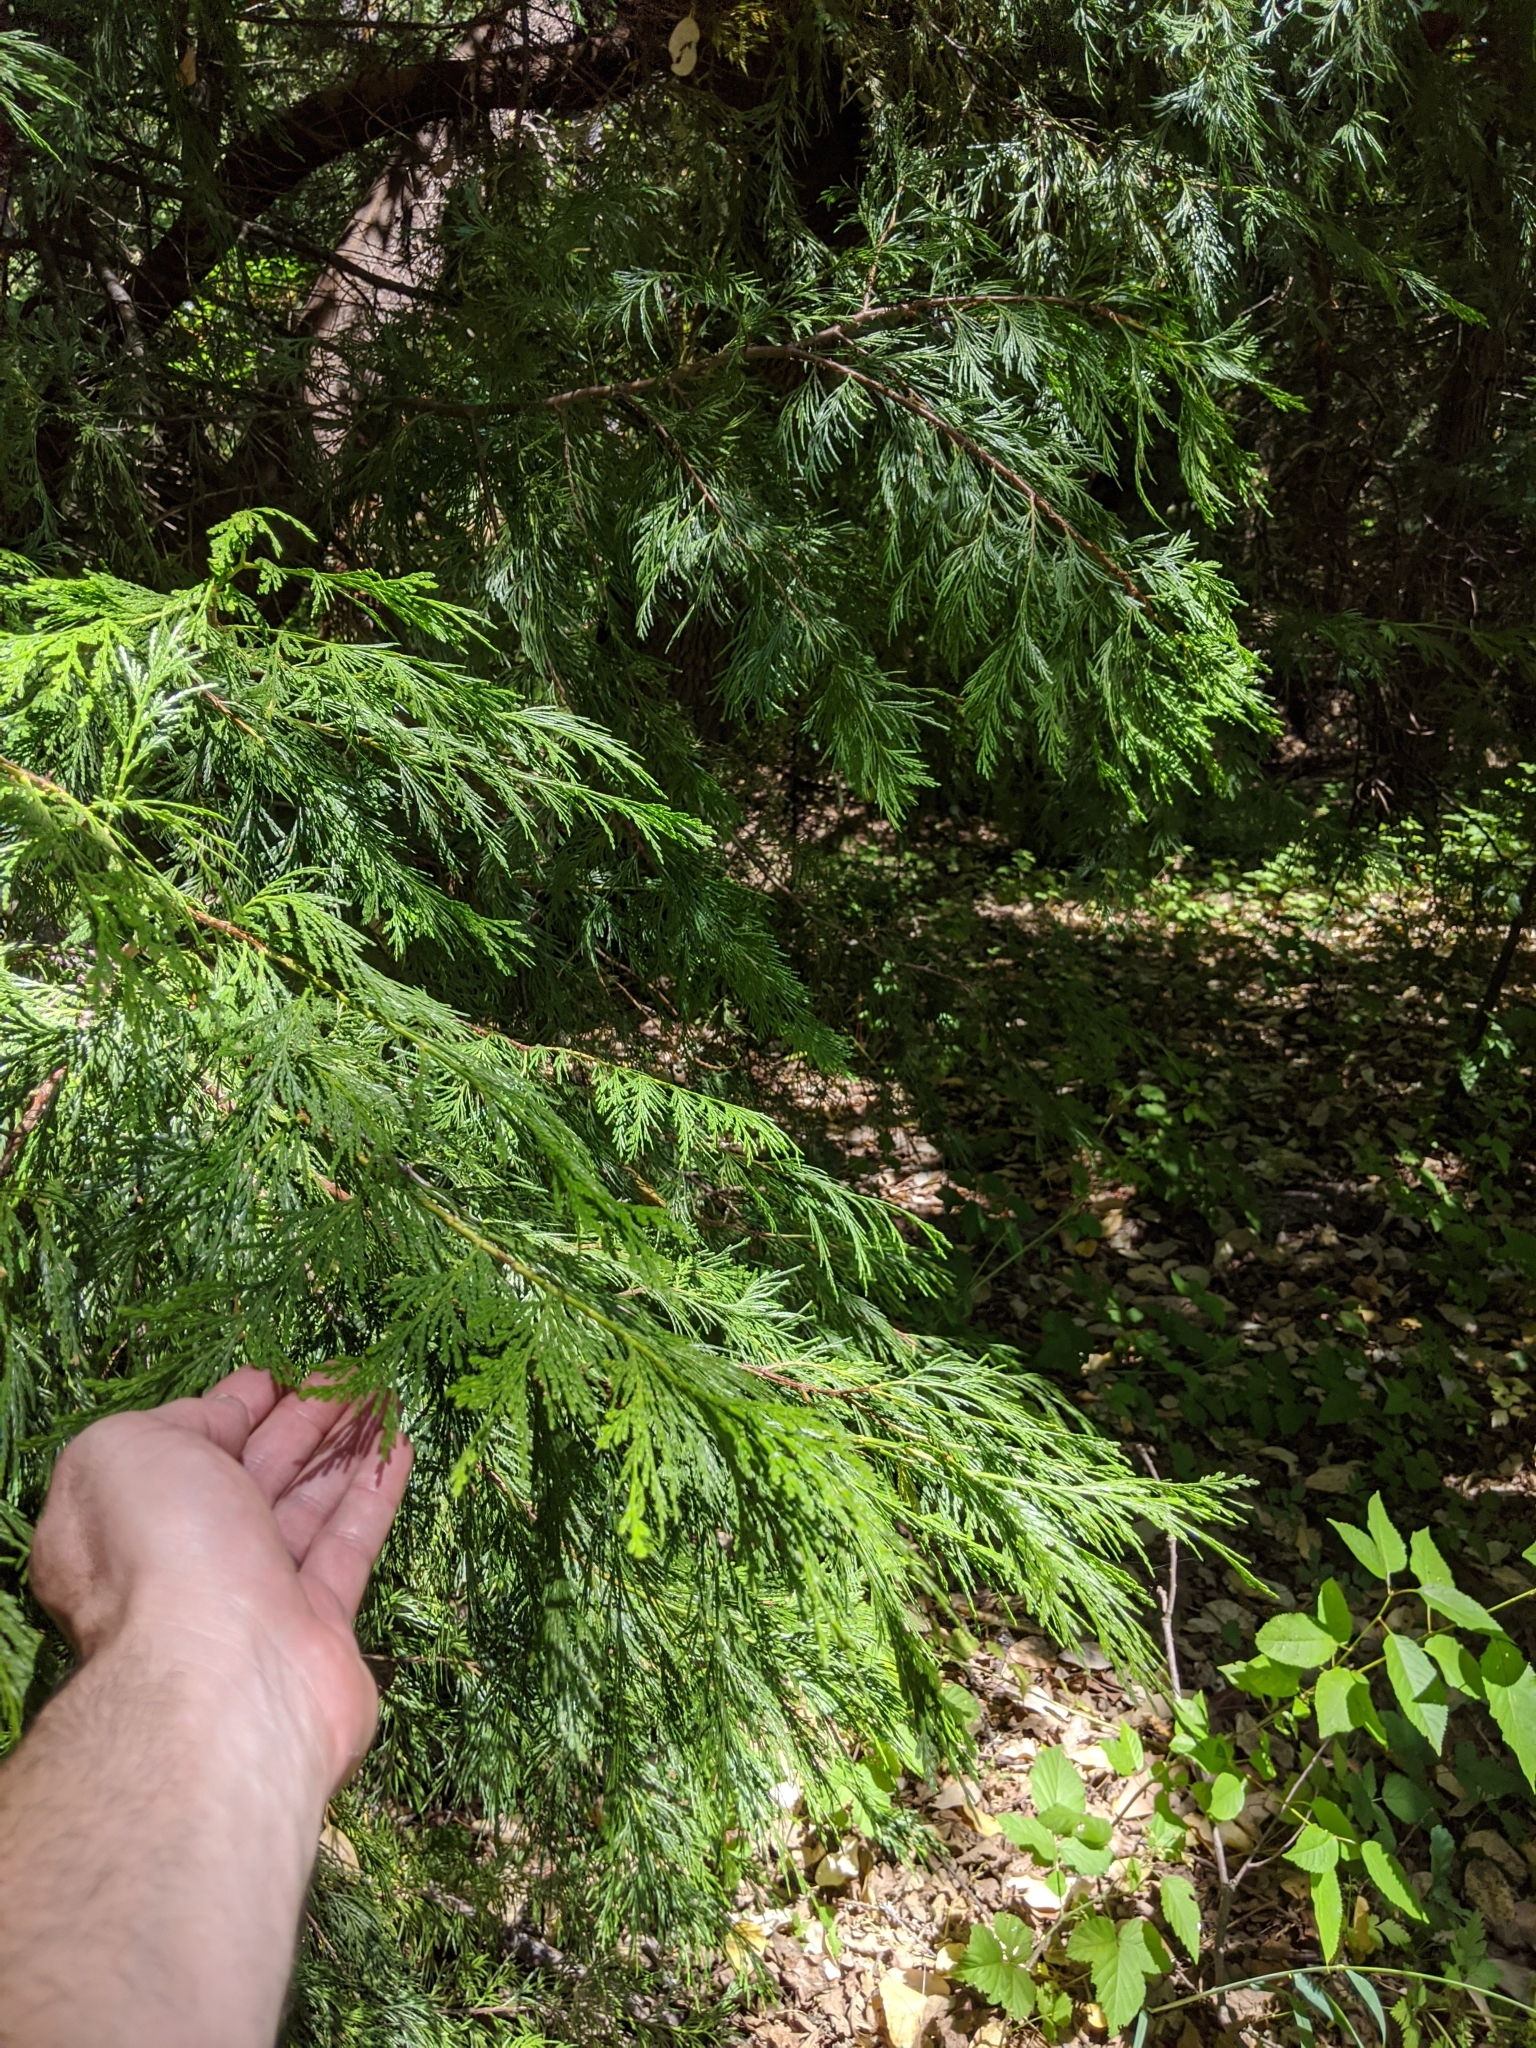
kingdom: Plantae
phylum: Tracheophyta
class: Pinopsida
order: Pinales
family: Cupressaceae
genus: Calocedrus
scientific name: Calocedrus decurrens
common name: Californian incense-cedar
